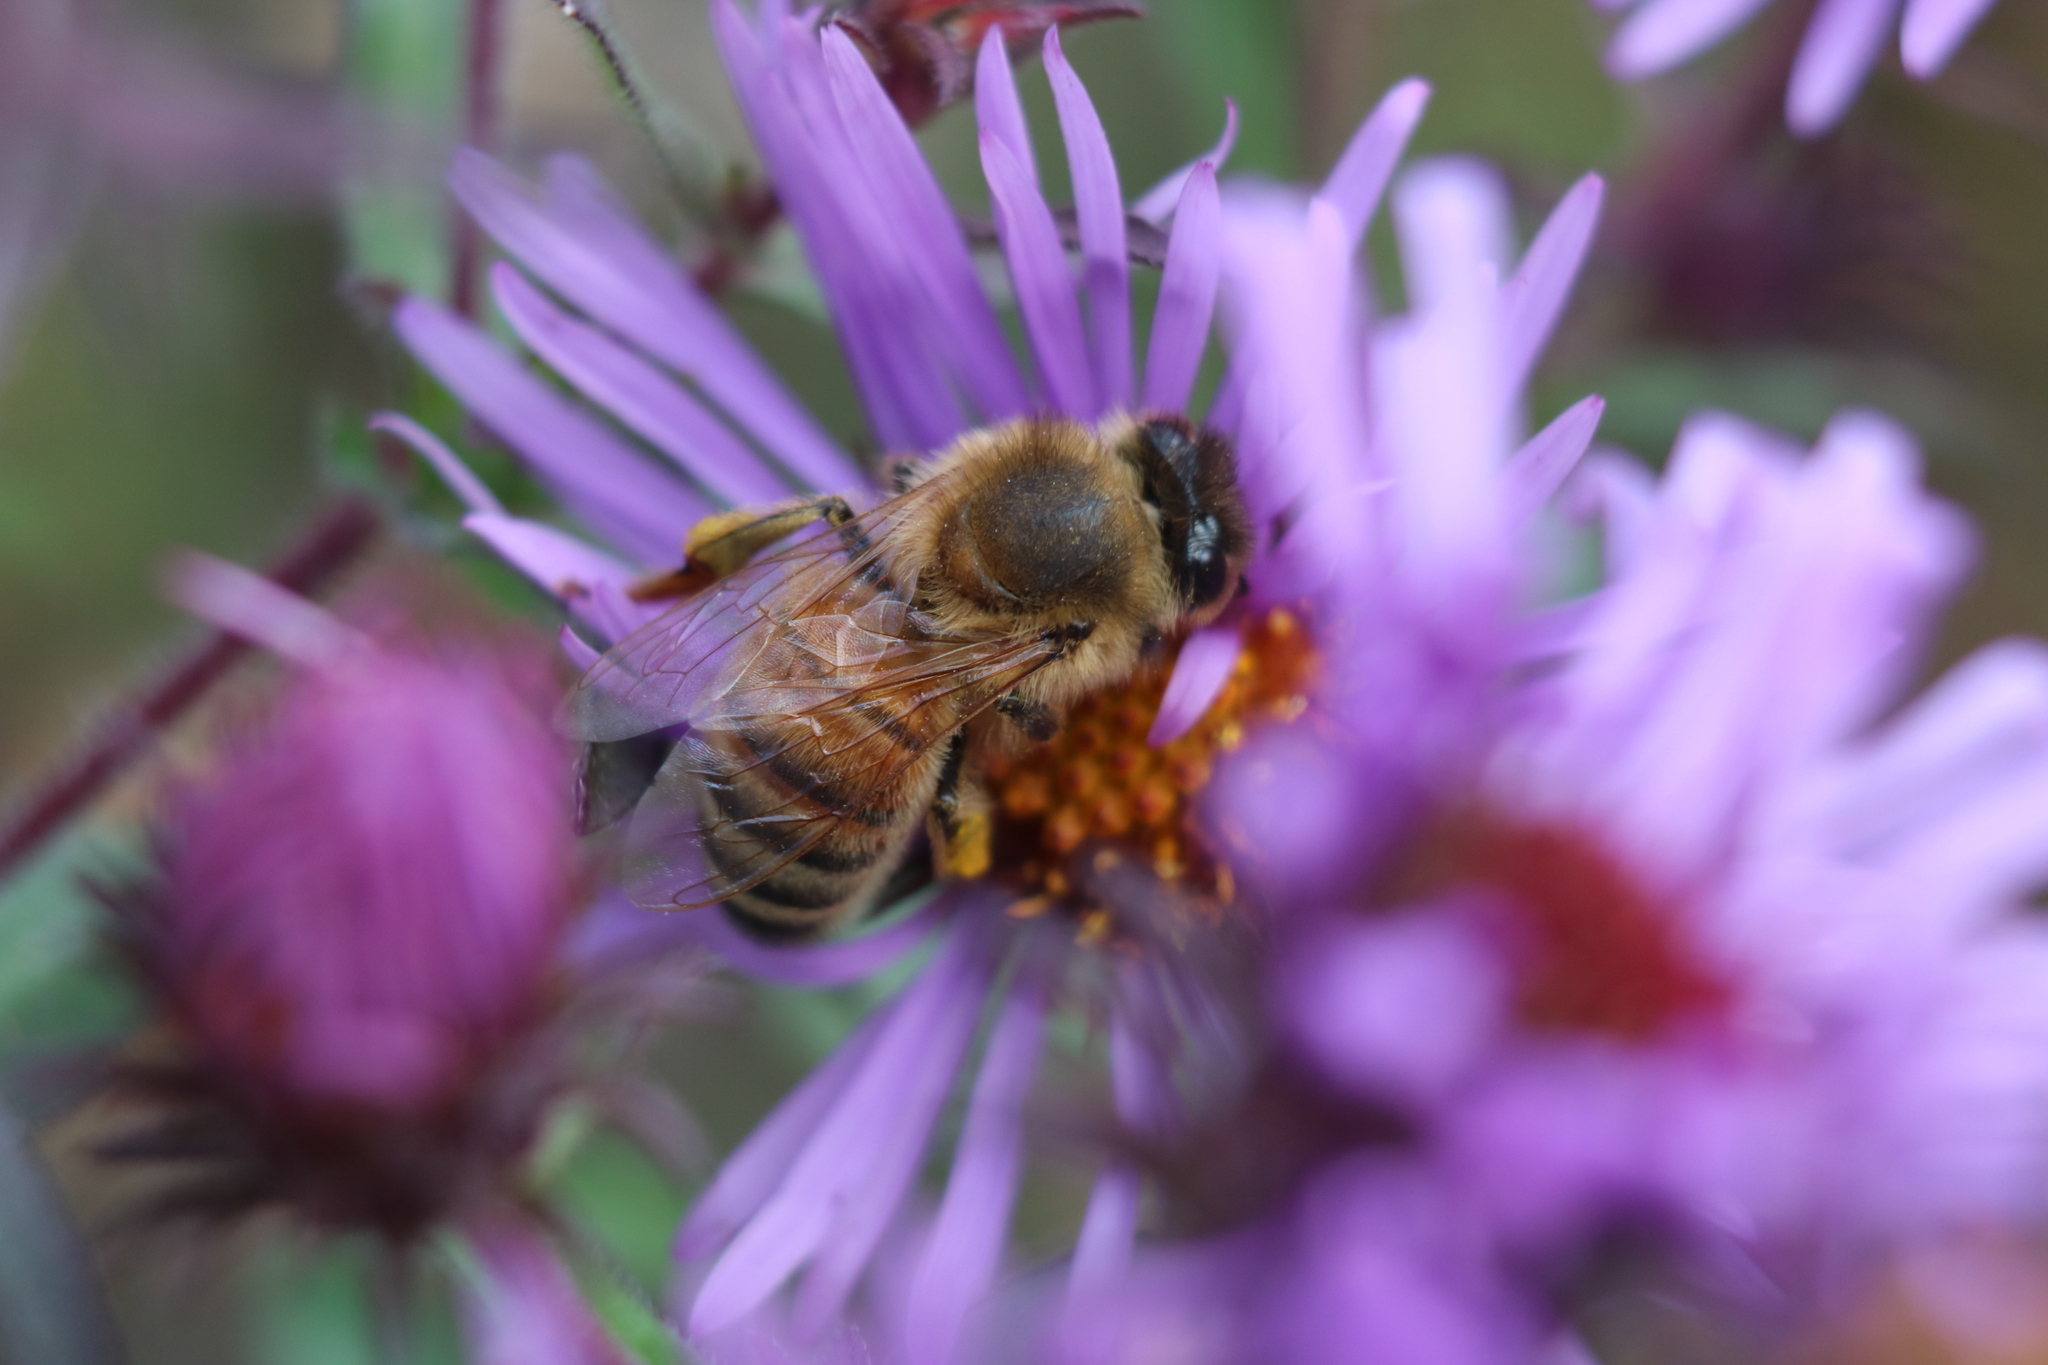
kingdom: Animalia
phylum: Arthropoda
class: Insecta
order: Hymenoptera
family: Apidae
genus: Apis
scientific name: Apis mellifera
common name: Honey bee
